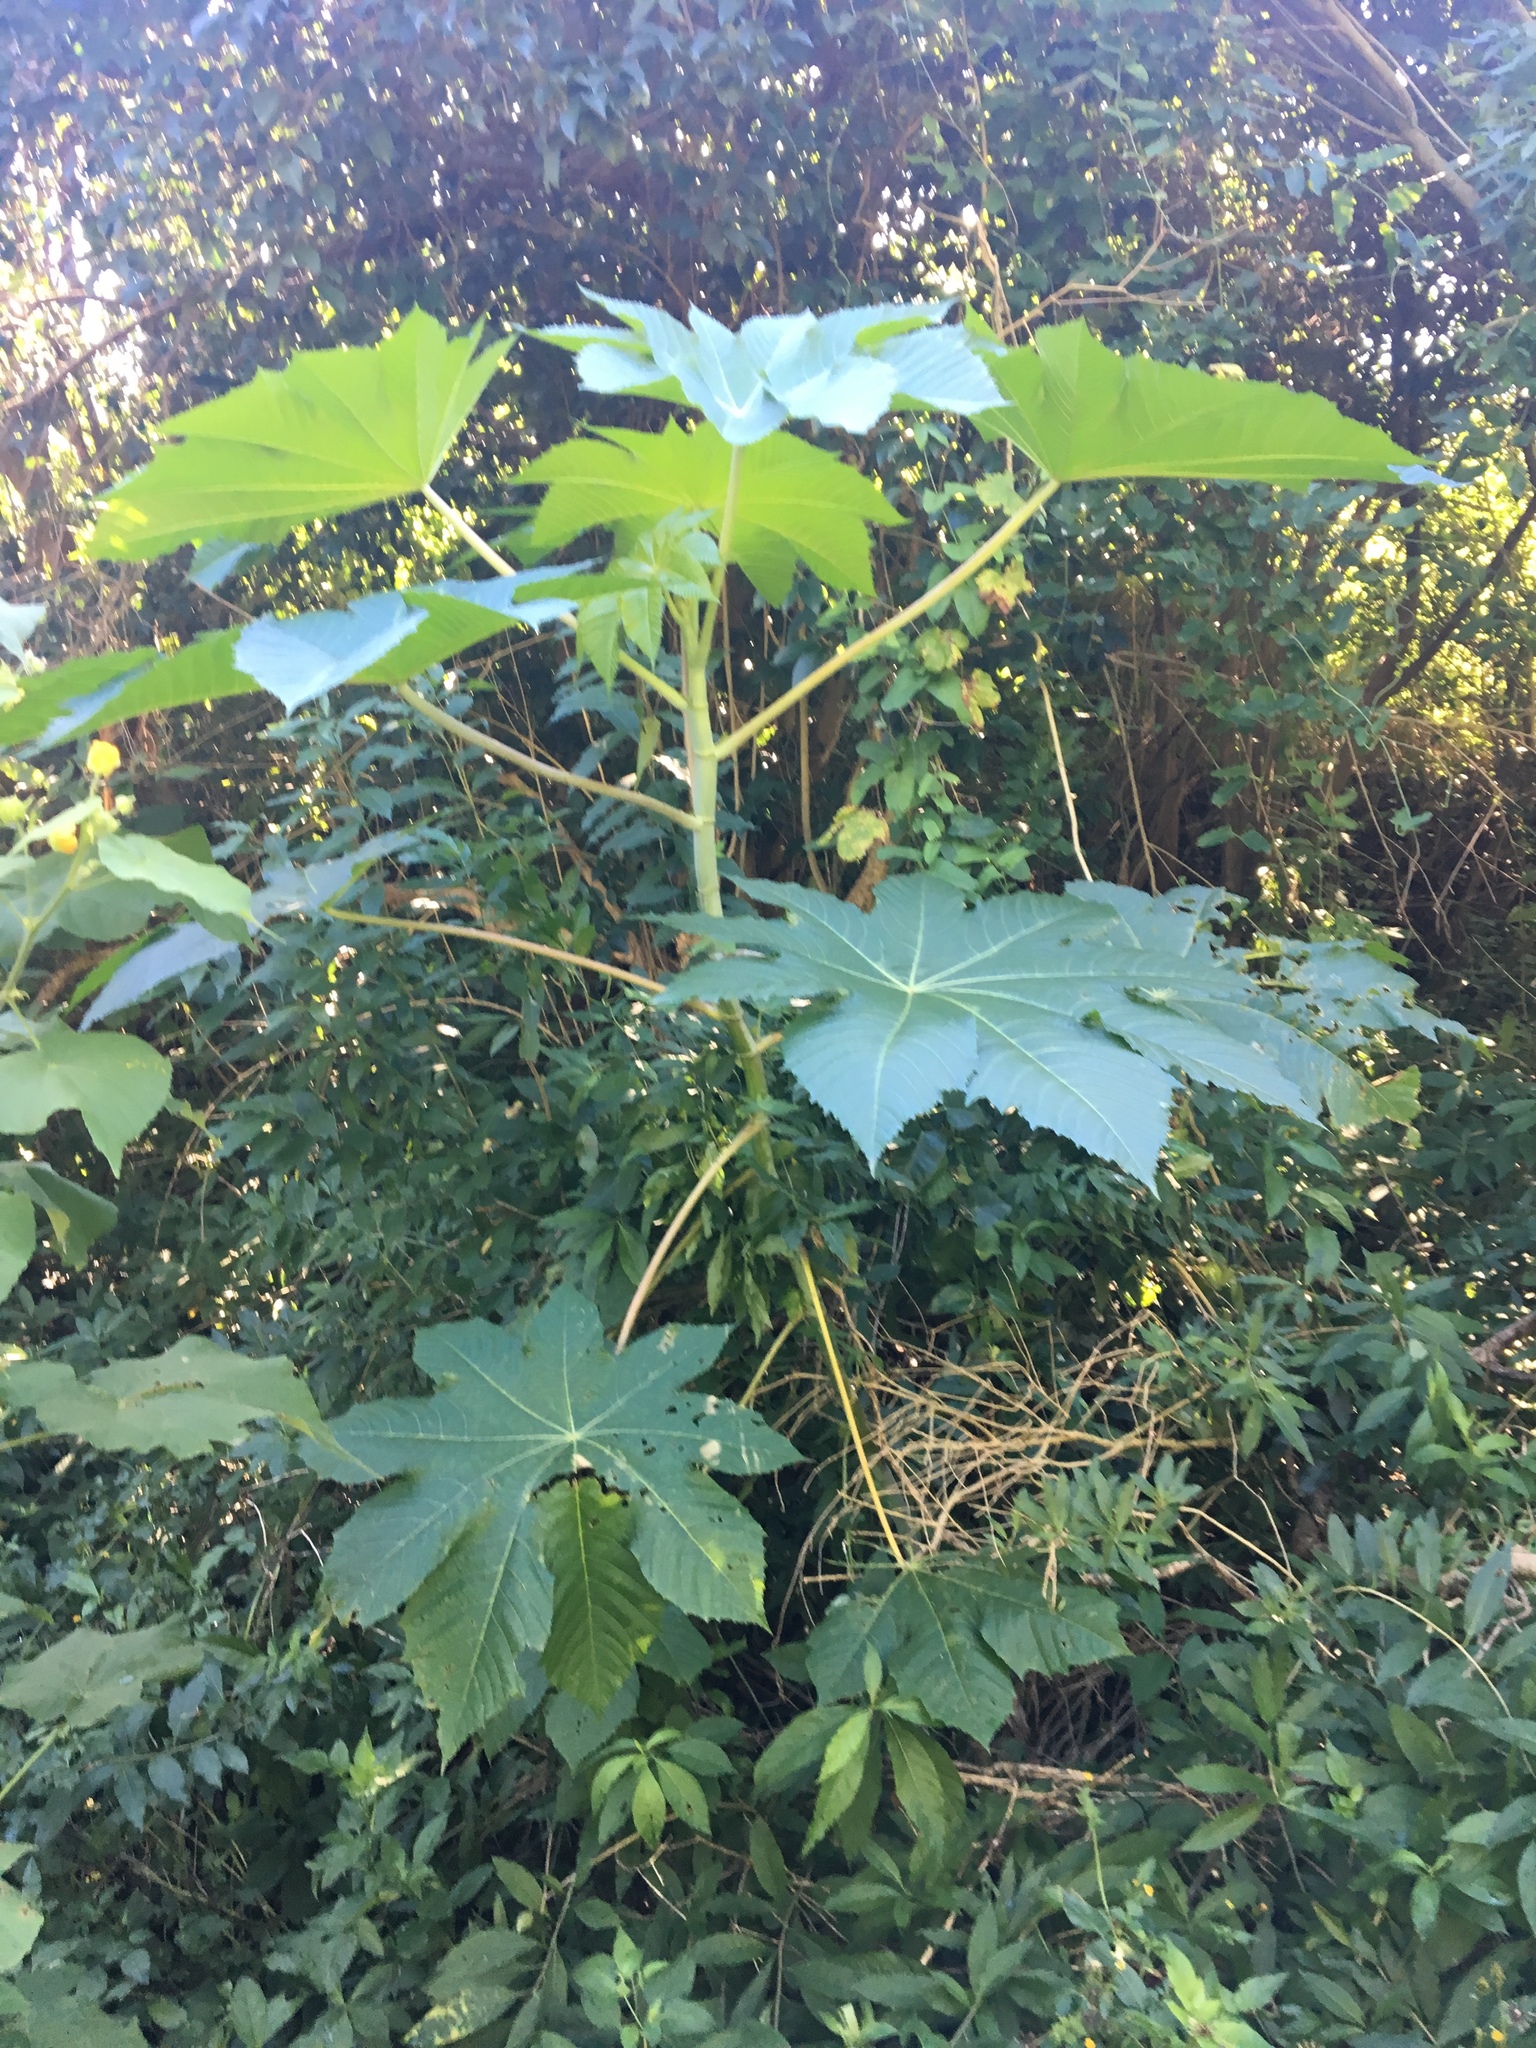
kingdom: Plantae
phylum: Tracheophyta
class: Magnoliopsida
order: Malpighiales
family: Euphorbiaceae
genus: Ricinus
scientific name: Ricinus communis
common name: Castor-oil-plant
